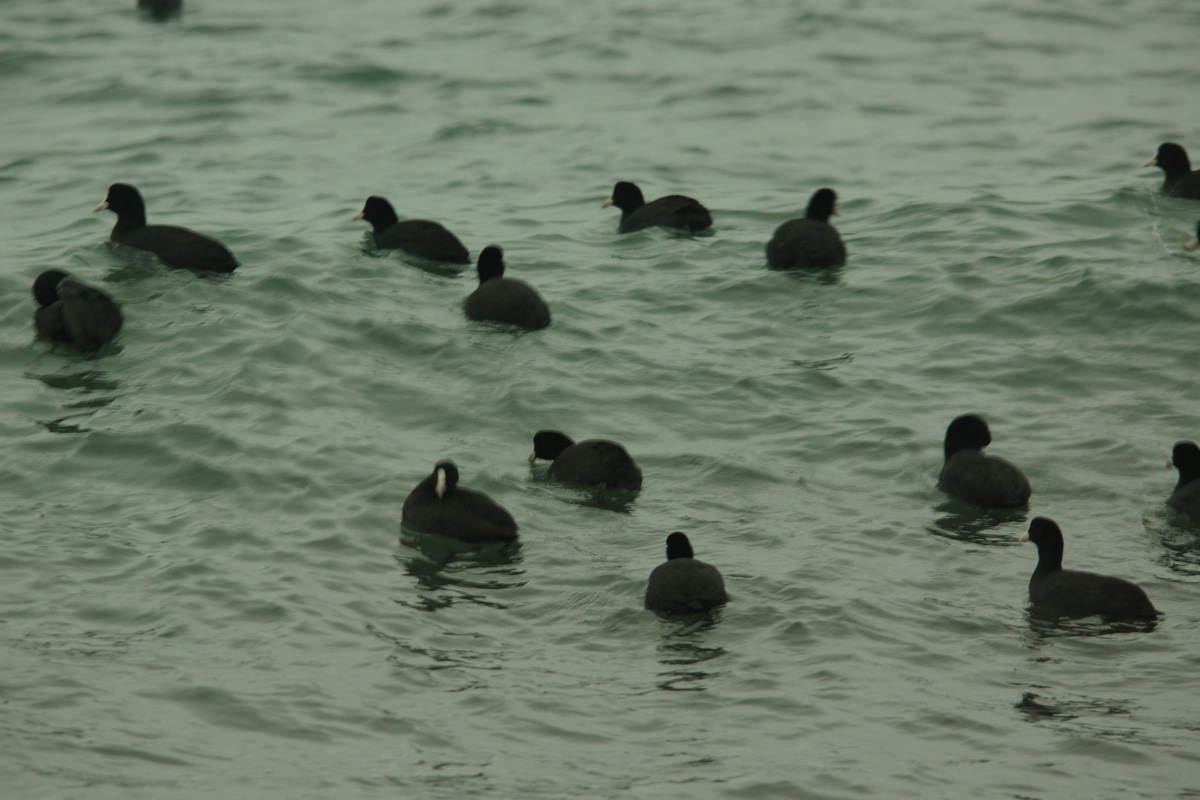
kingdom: Animalia
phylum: Chordata
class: Aves
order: Gruiformes
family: Rallidae
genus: Fulica
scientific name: Fulica atra
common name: Eurasian coot
